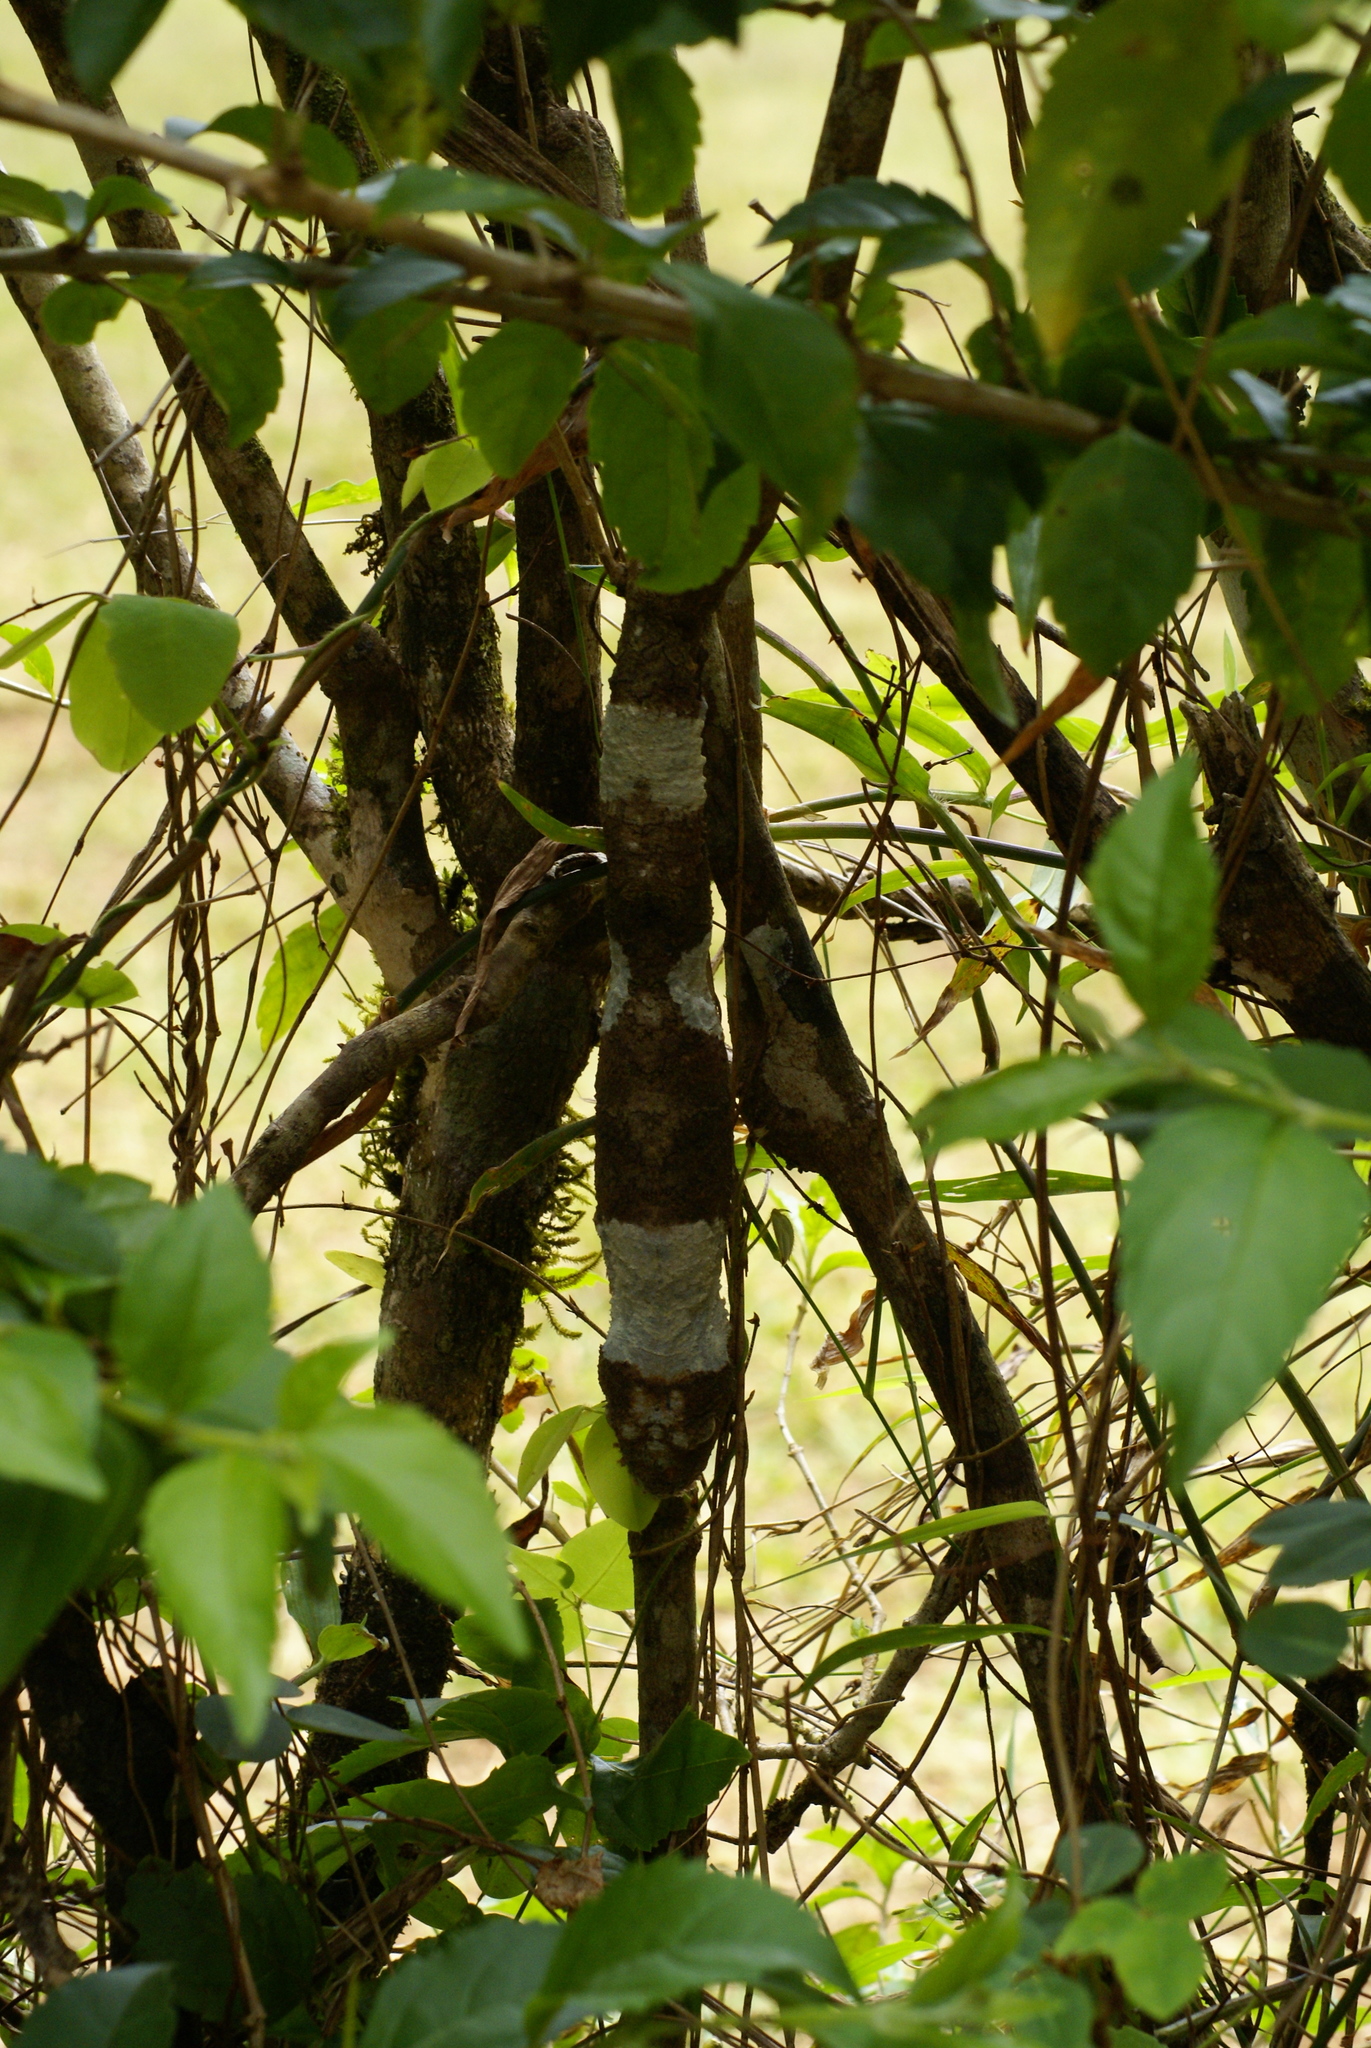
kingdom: Animalia
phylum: Chordata
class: Squamata
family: Gekkonidae
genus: Uroplatus
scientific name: Uroplatus sikorae
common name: Southern flat-tail gecko
